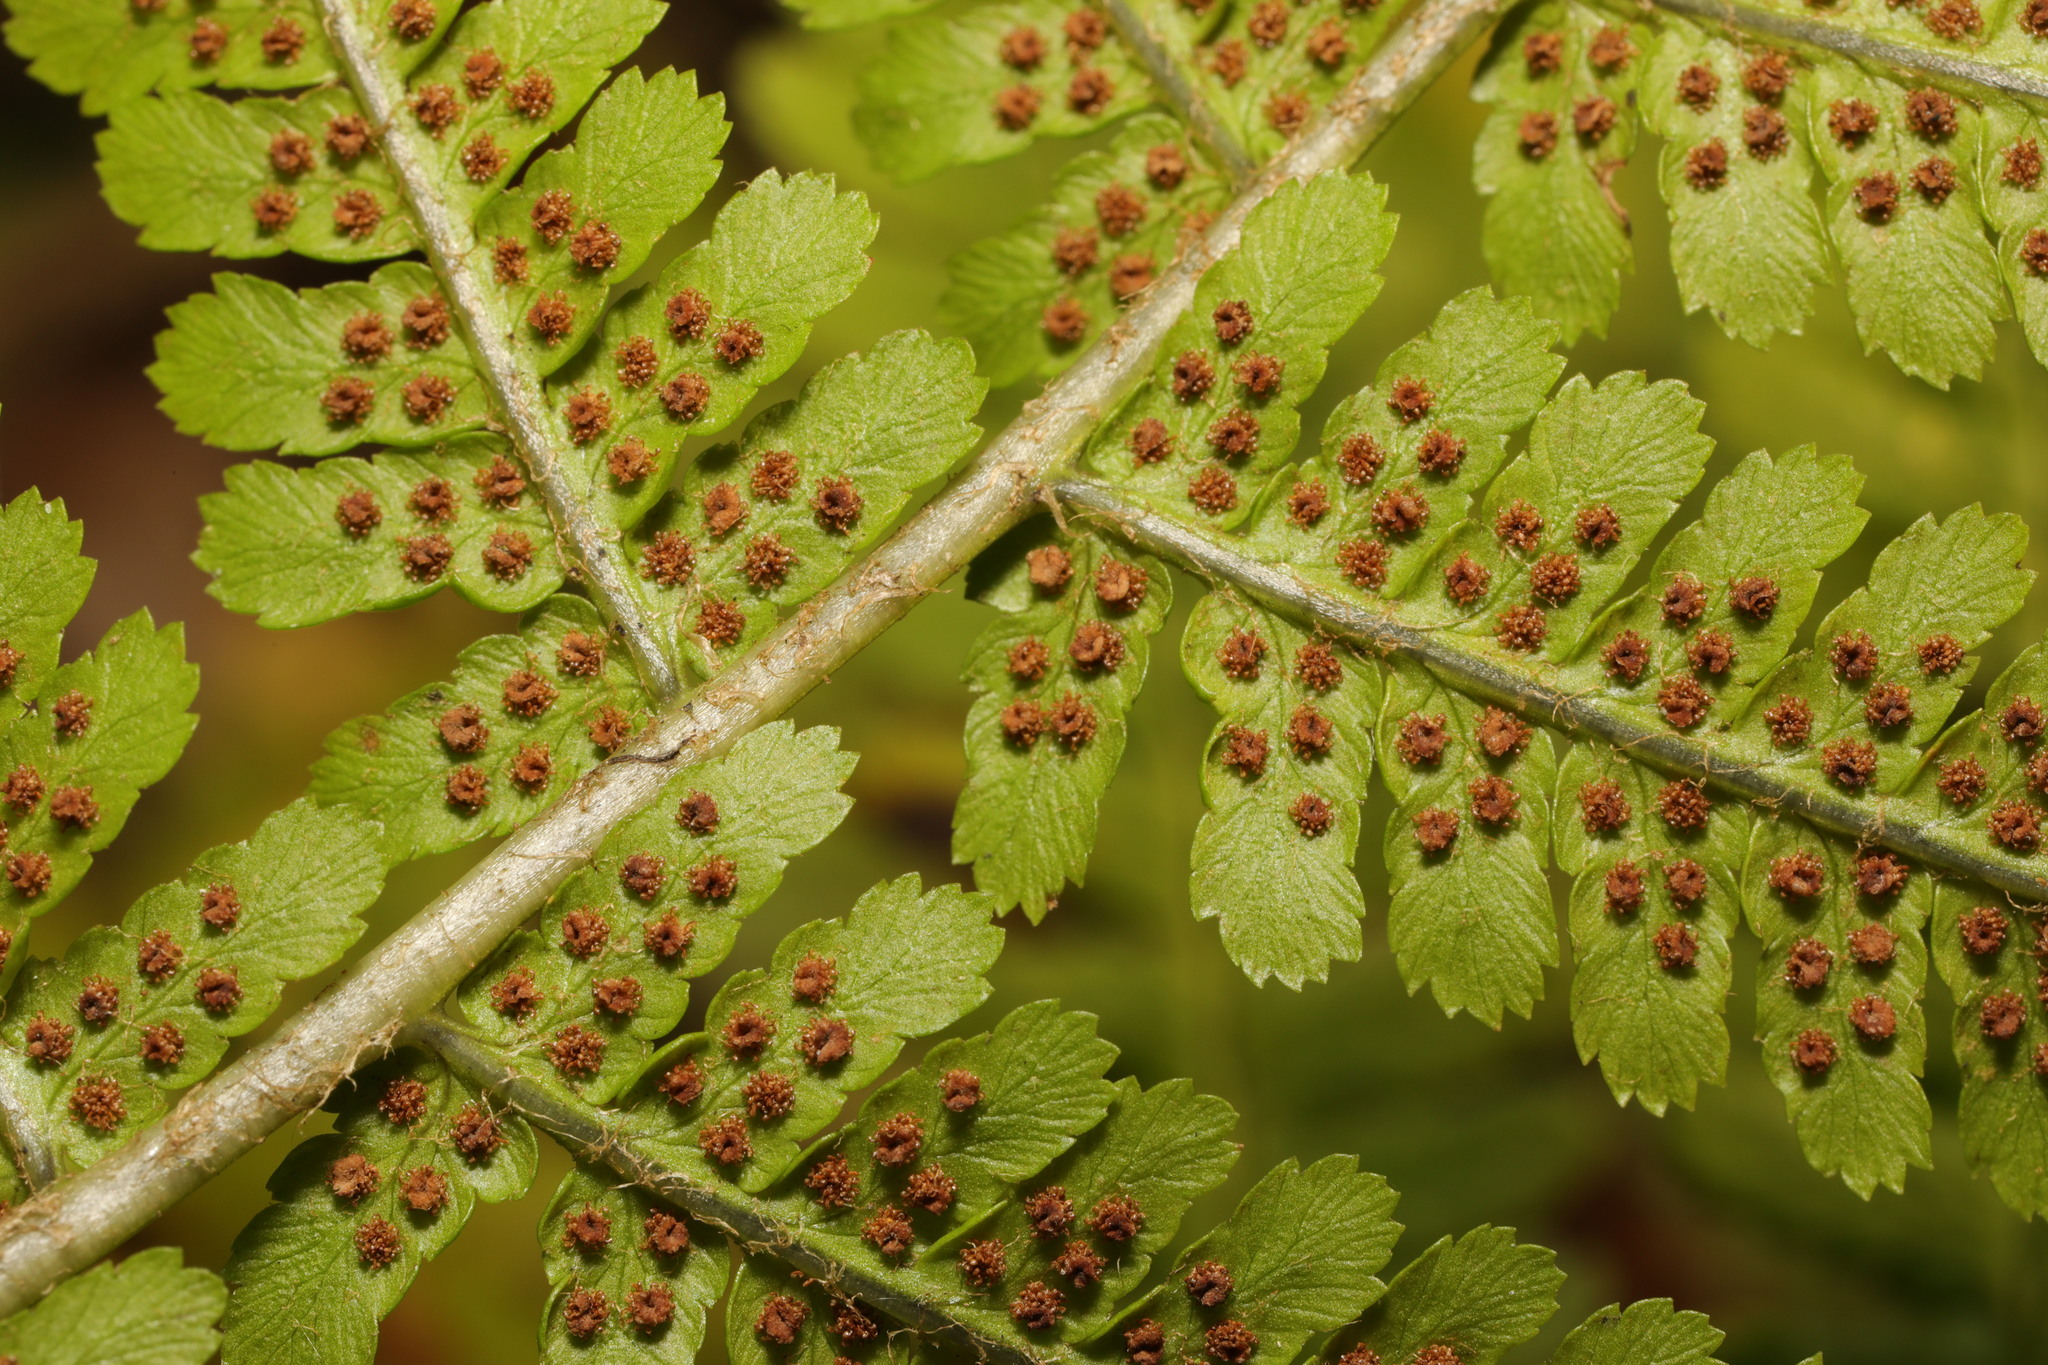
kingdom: Plantae
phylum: Tracheophyta
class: Polypodiopsida
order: Polypodiales
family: Dryopteridaceae
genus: Dryopteris
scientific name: Dryopteris filix-mas
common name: Male fern
